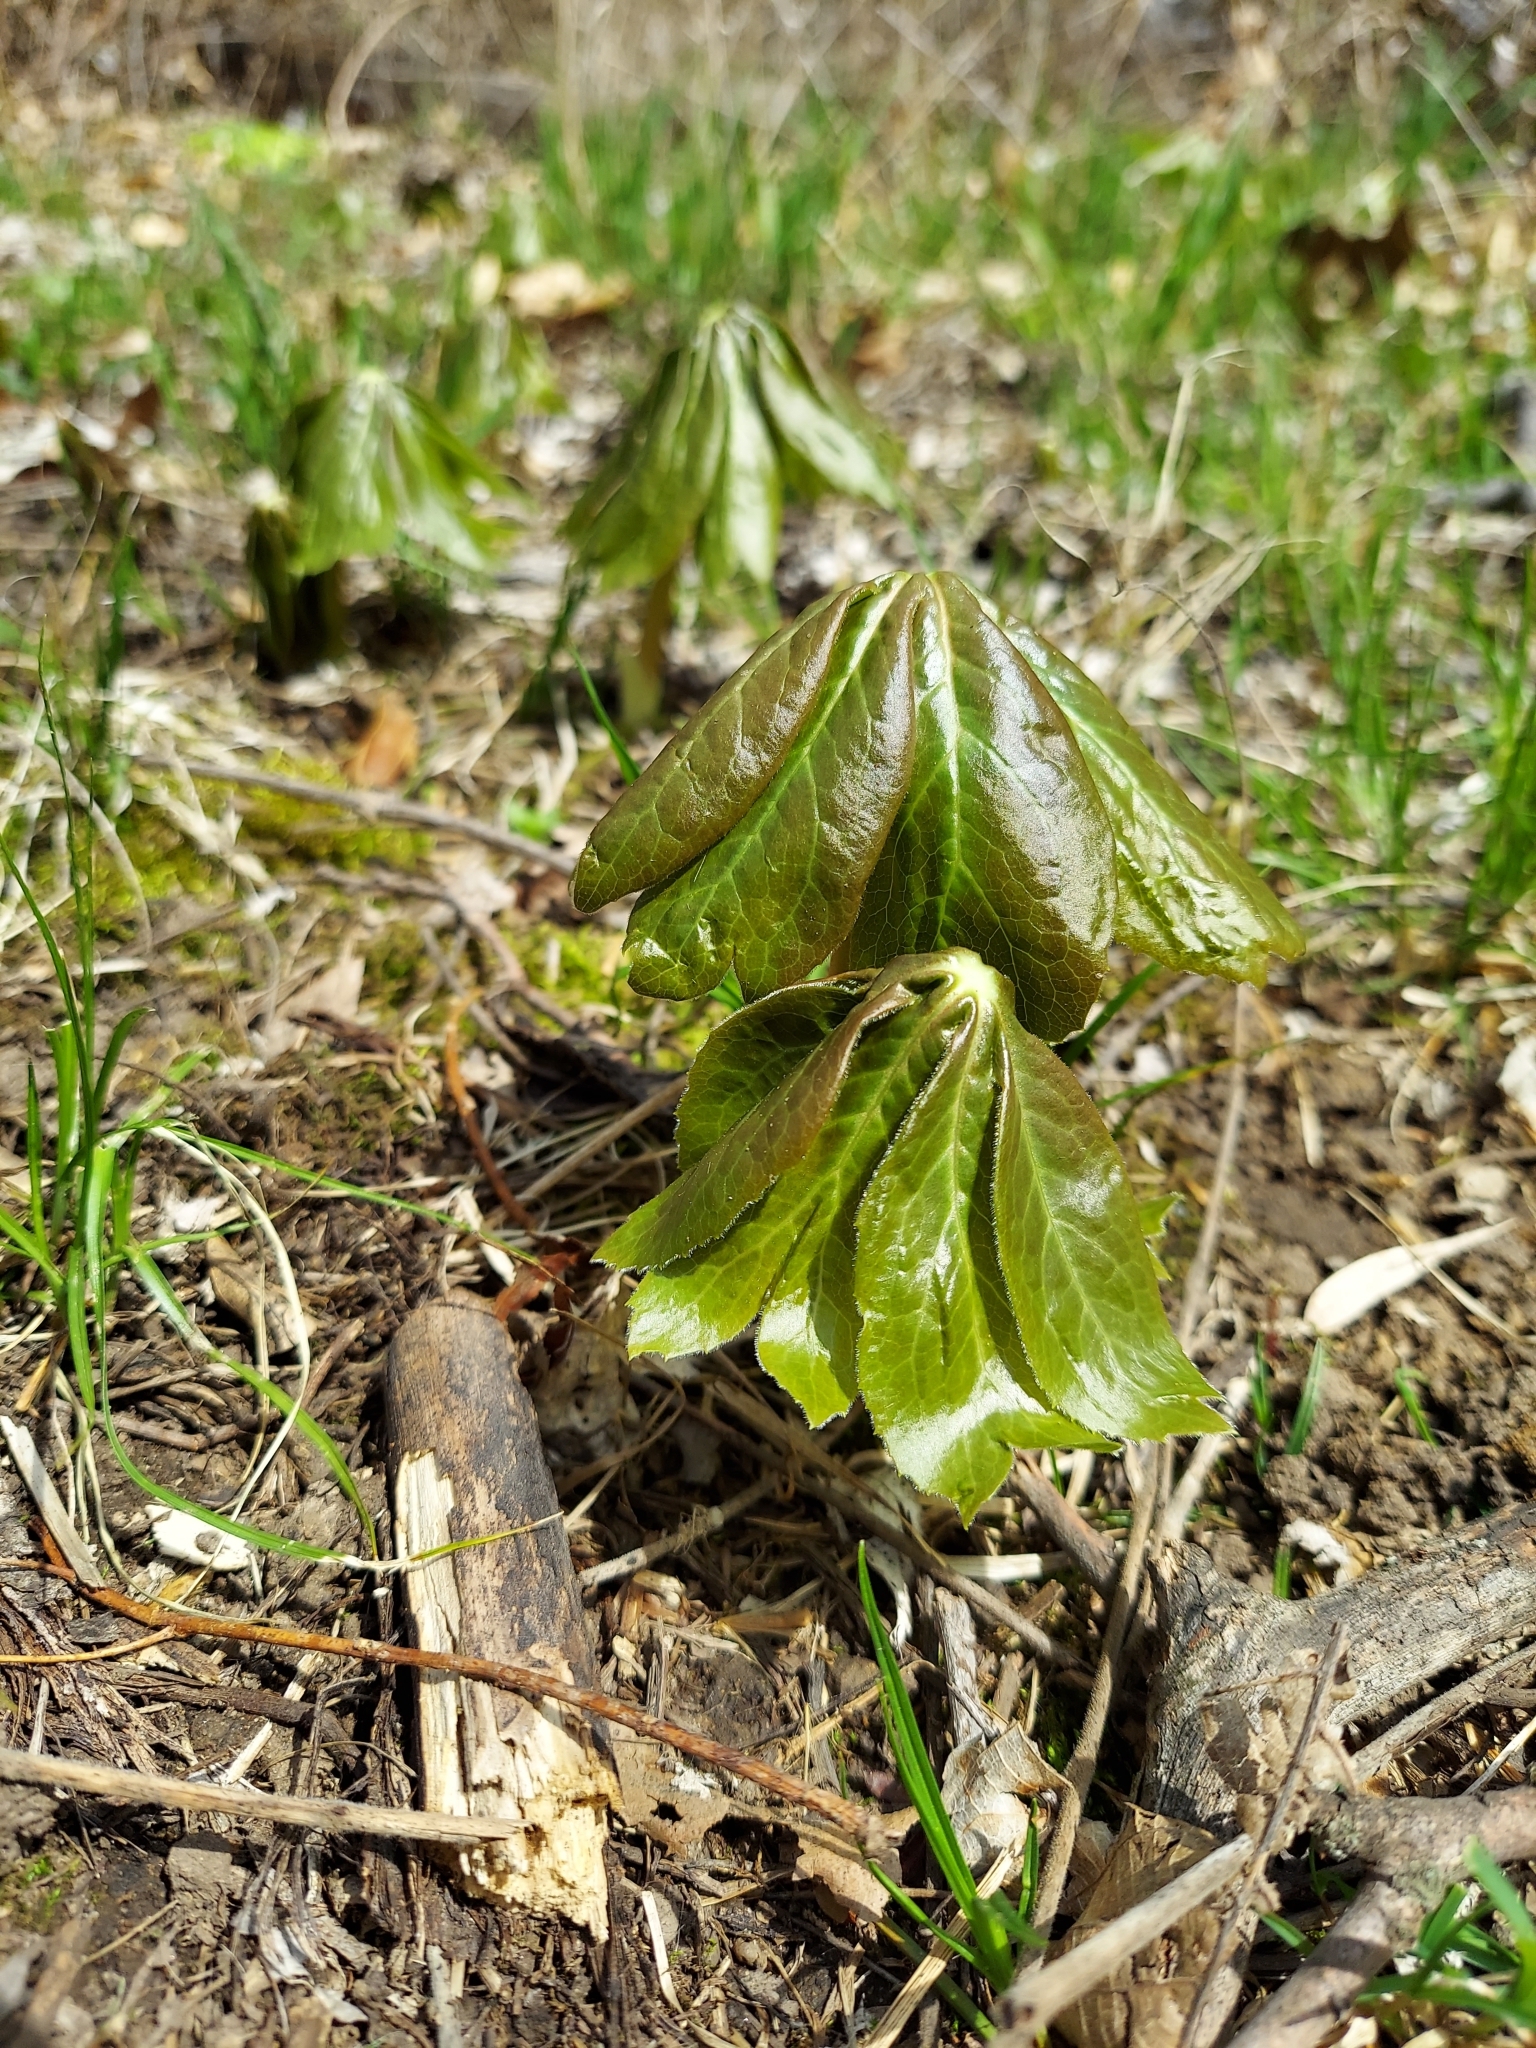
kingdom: Plantae
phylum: Tracheophyta
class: Magnoliopsida
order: Ranunculales
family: Berberidaceae
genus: Podophyllum
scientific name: Podophyllum peltatum
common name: Wild mandrake
